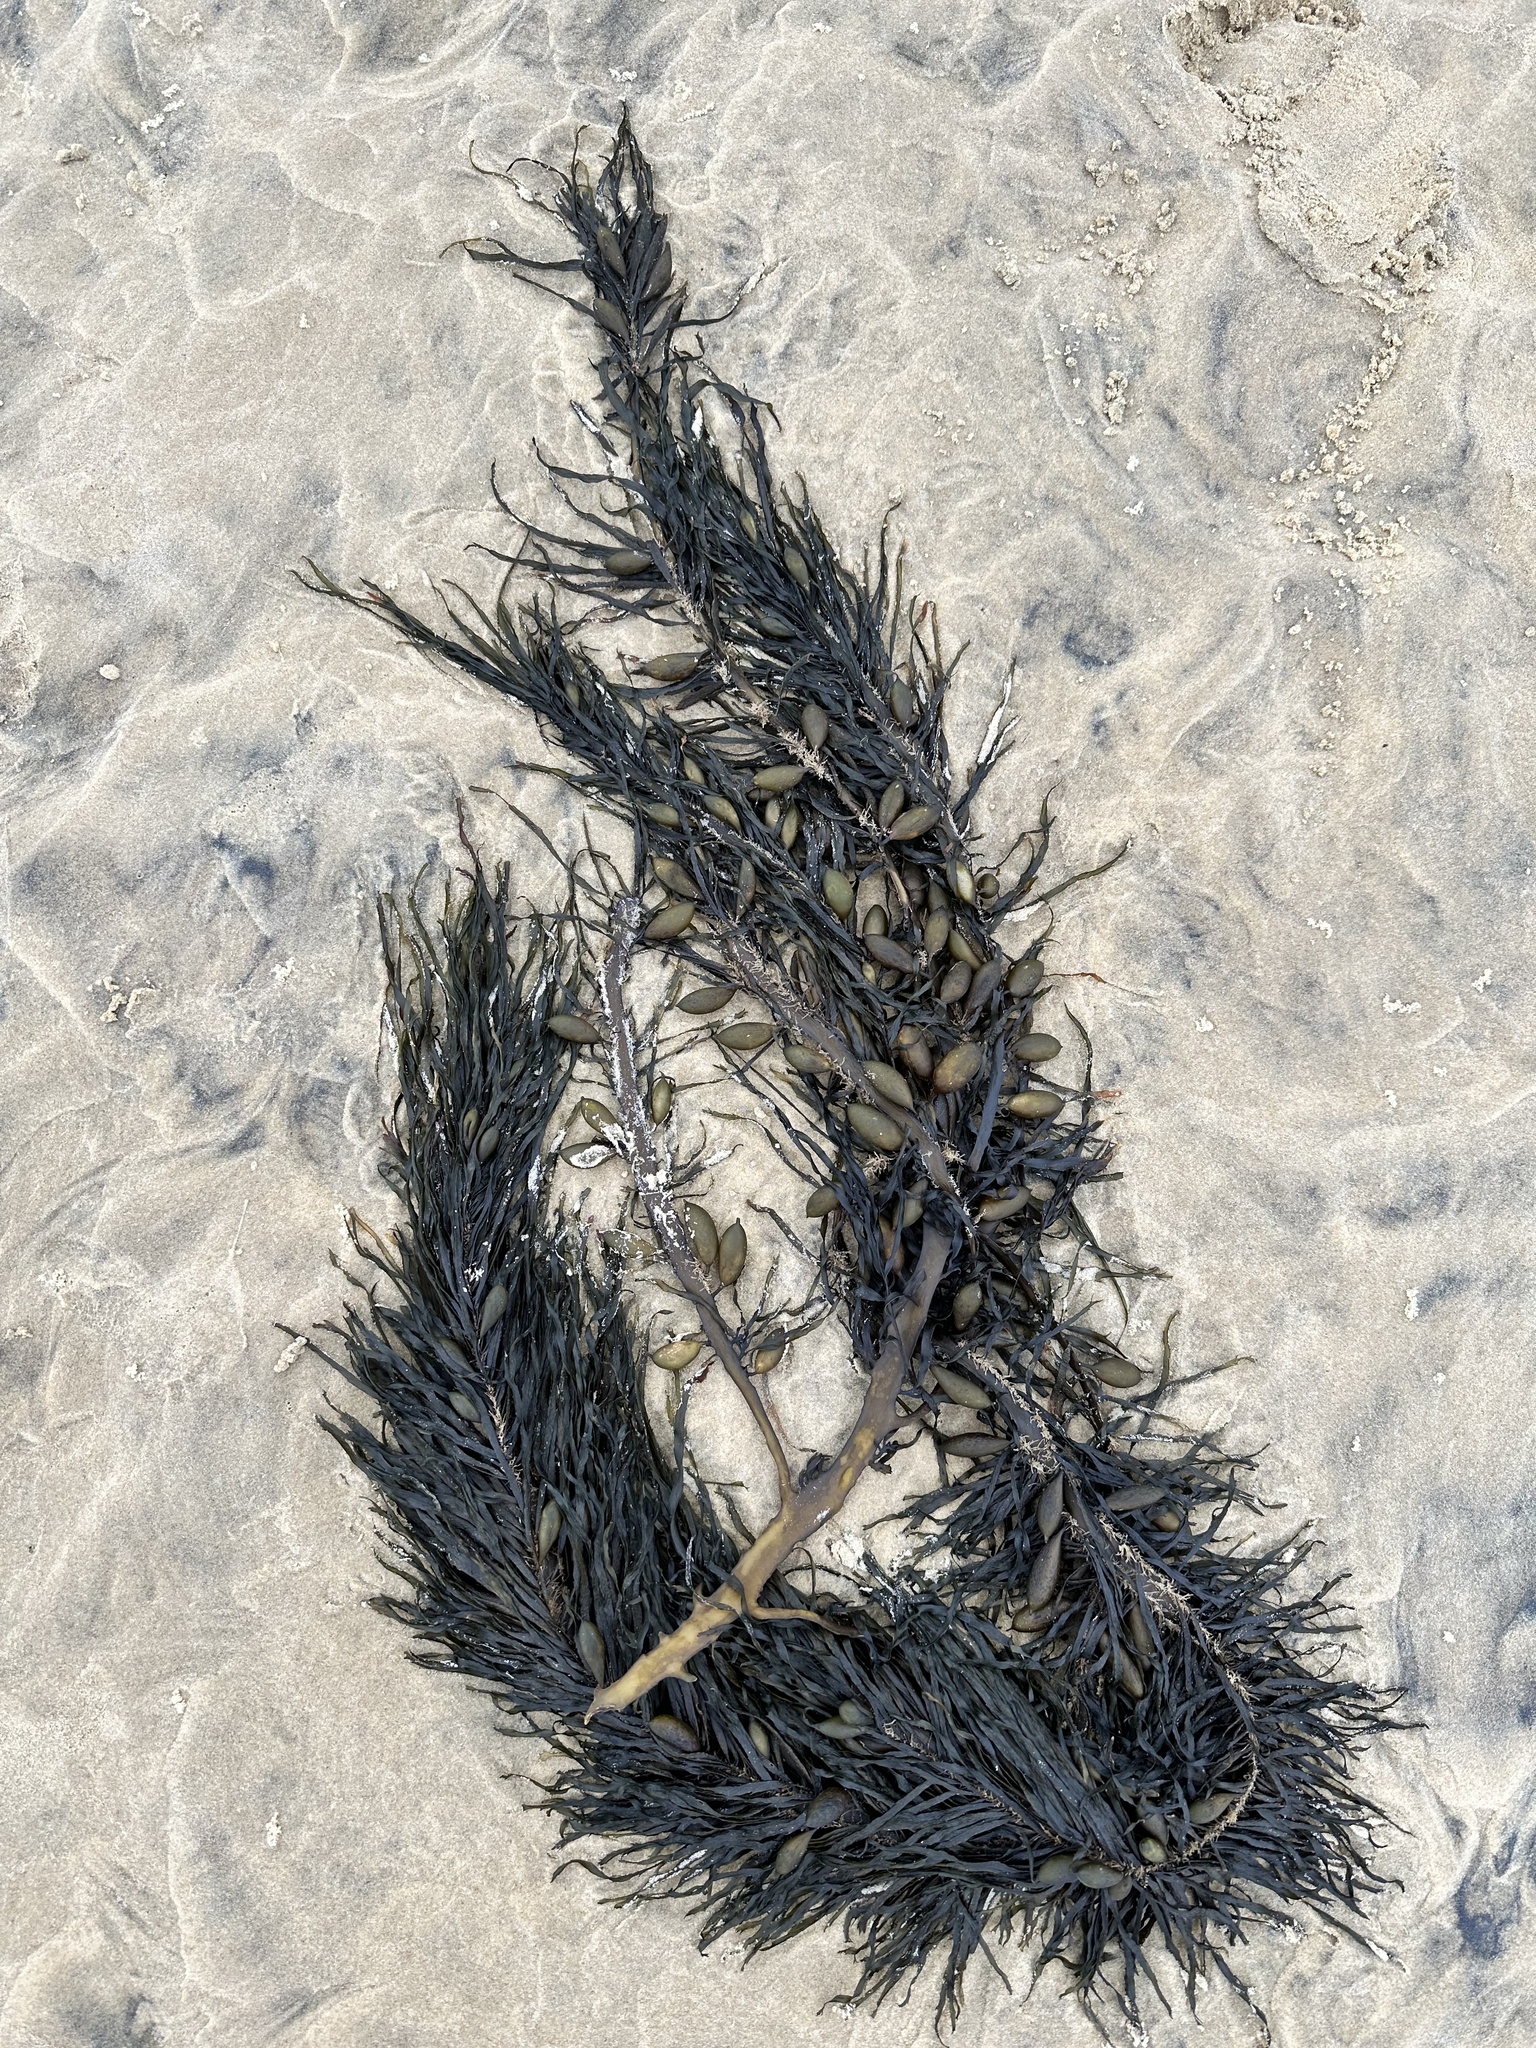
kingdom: Chromista
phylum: Ochrophyta
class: Phaeophyceae
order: Fucales
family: Seirococcaceae
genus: Phyllospora
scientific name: Phyllospora
